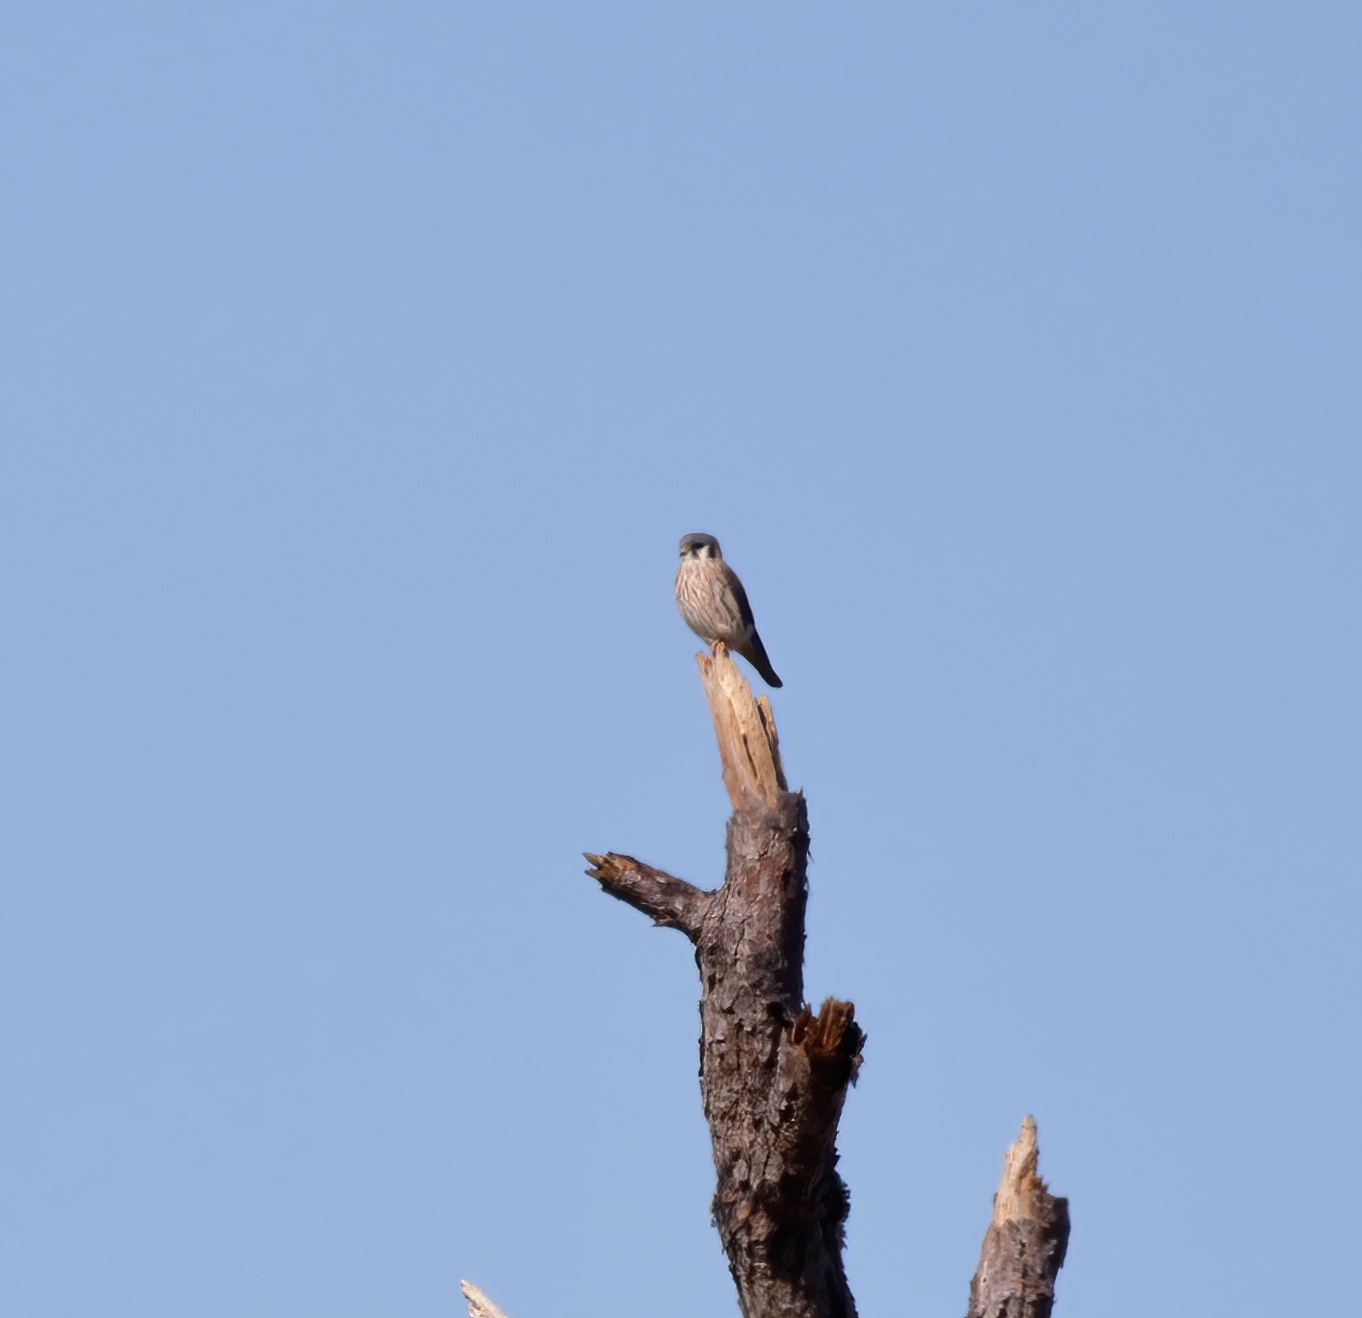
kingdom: Animalia
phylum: Chordata
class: Aves
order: Falconiformes
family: Falconidae
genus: Falco
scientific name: Falco sparverius
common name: American kestrel
